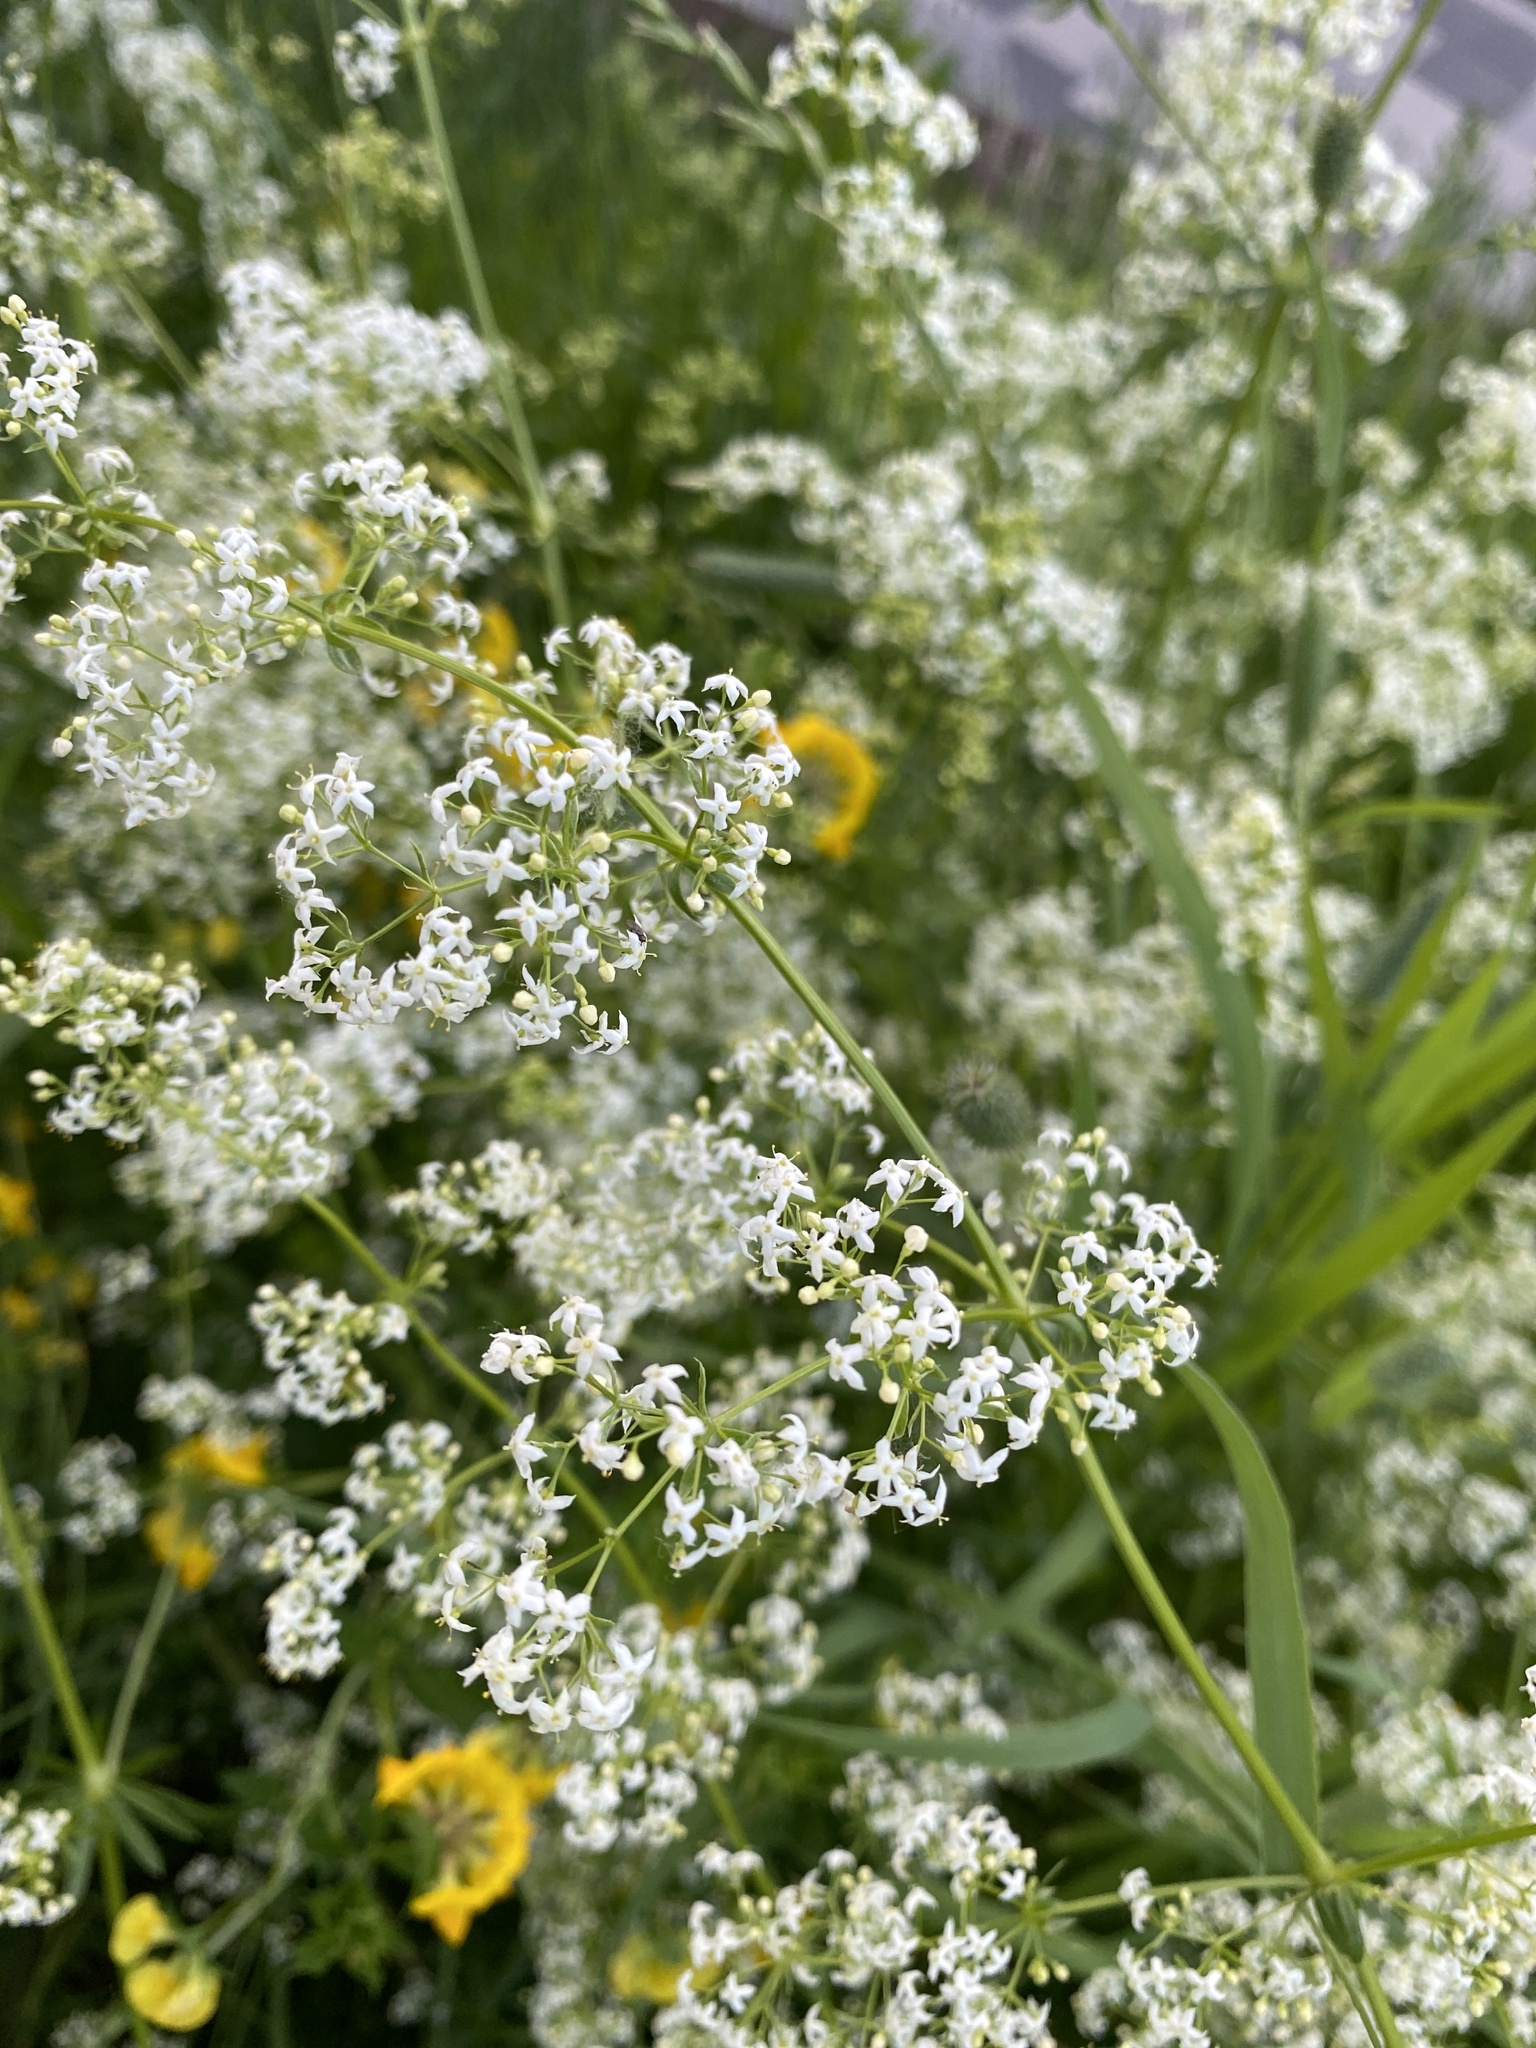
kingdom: Plantae
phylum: Tracheophyta
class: Magnoliopsida
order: Gentianales
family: Rubiaceae
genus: Galium
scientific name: Galium mollugo
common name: Hedge bedstraw
